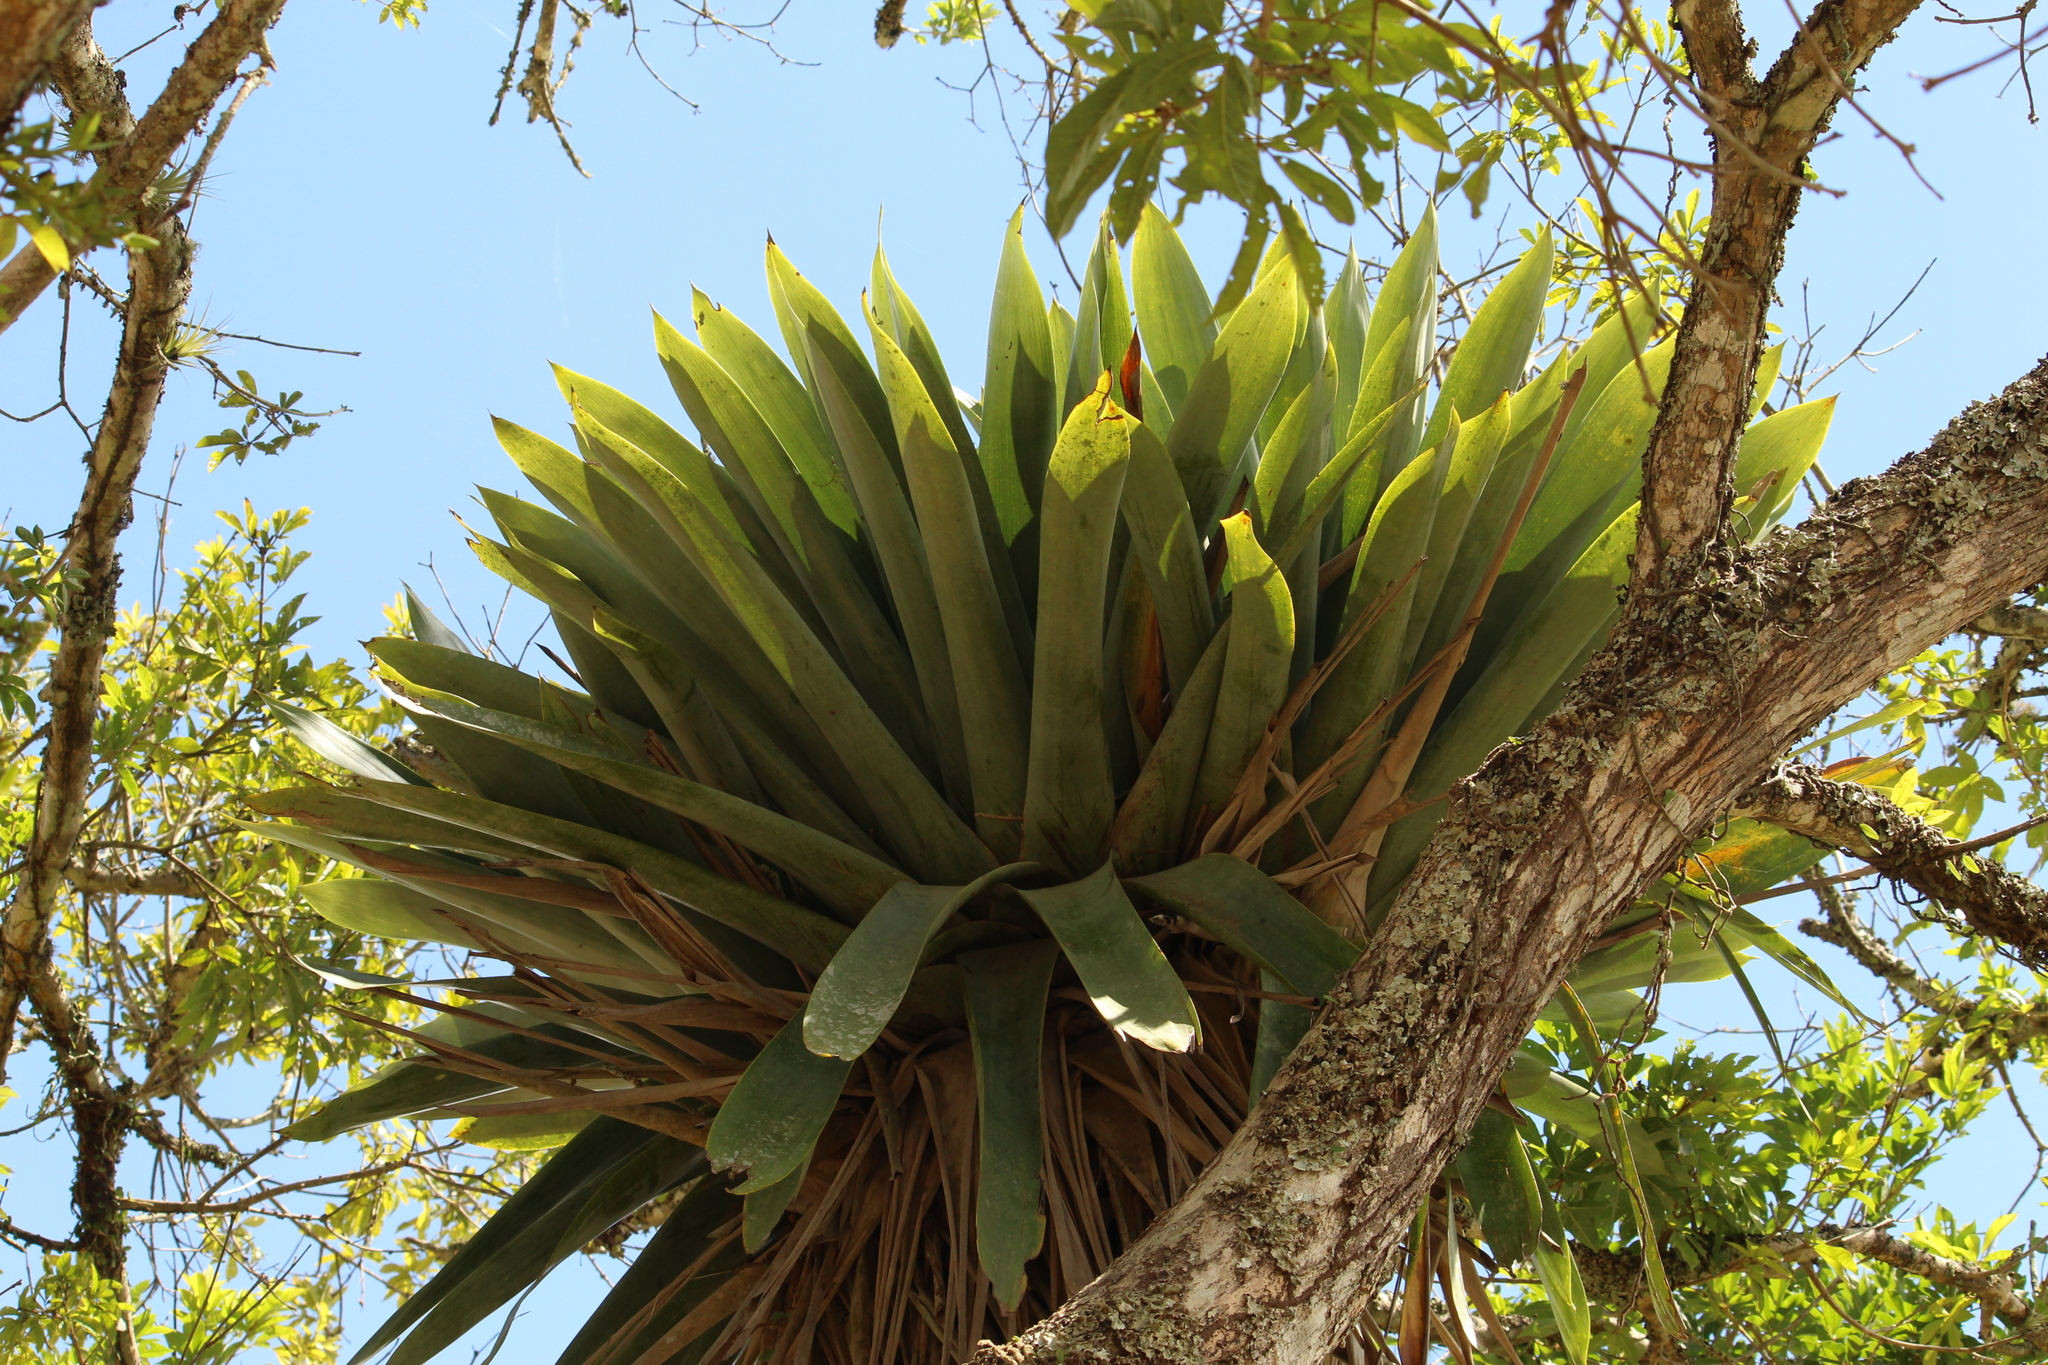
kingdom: Plantae
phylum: Tracheophyta
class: Liliopsida
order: Poales
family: Bromeliaceae
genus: Vriesea
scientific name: Vriesea gigantea
